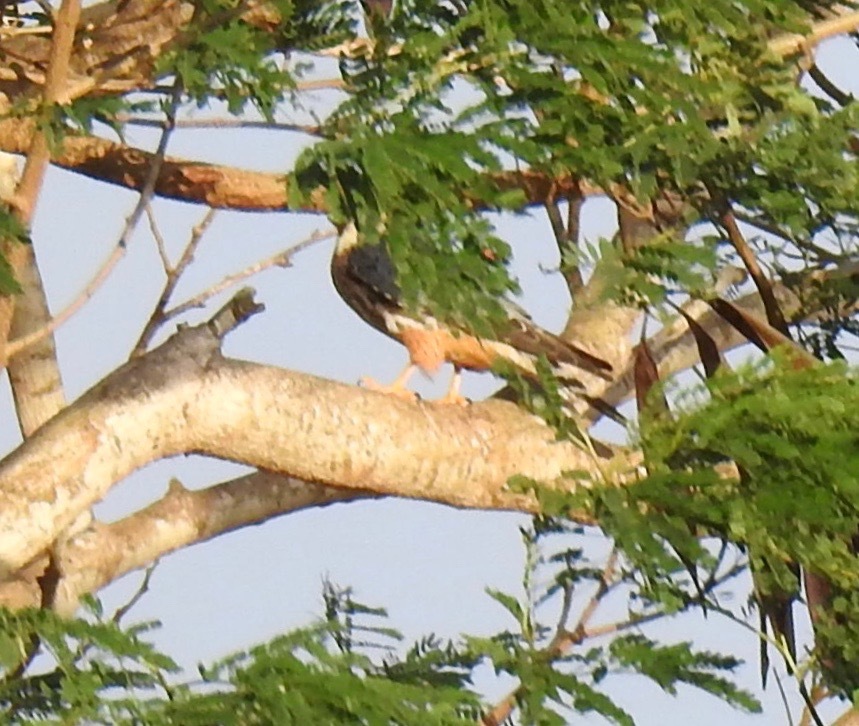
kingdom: Animalia
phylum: Chordata
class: Aves
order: Falconiformes
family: Falconidae
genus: Falco
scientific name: Falco rufigularis
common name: Bat falcon
